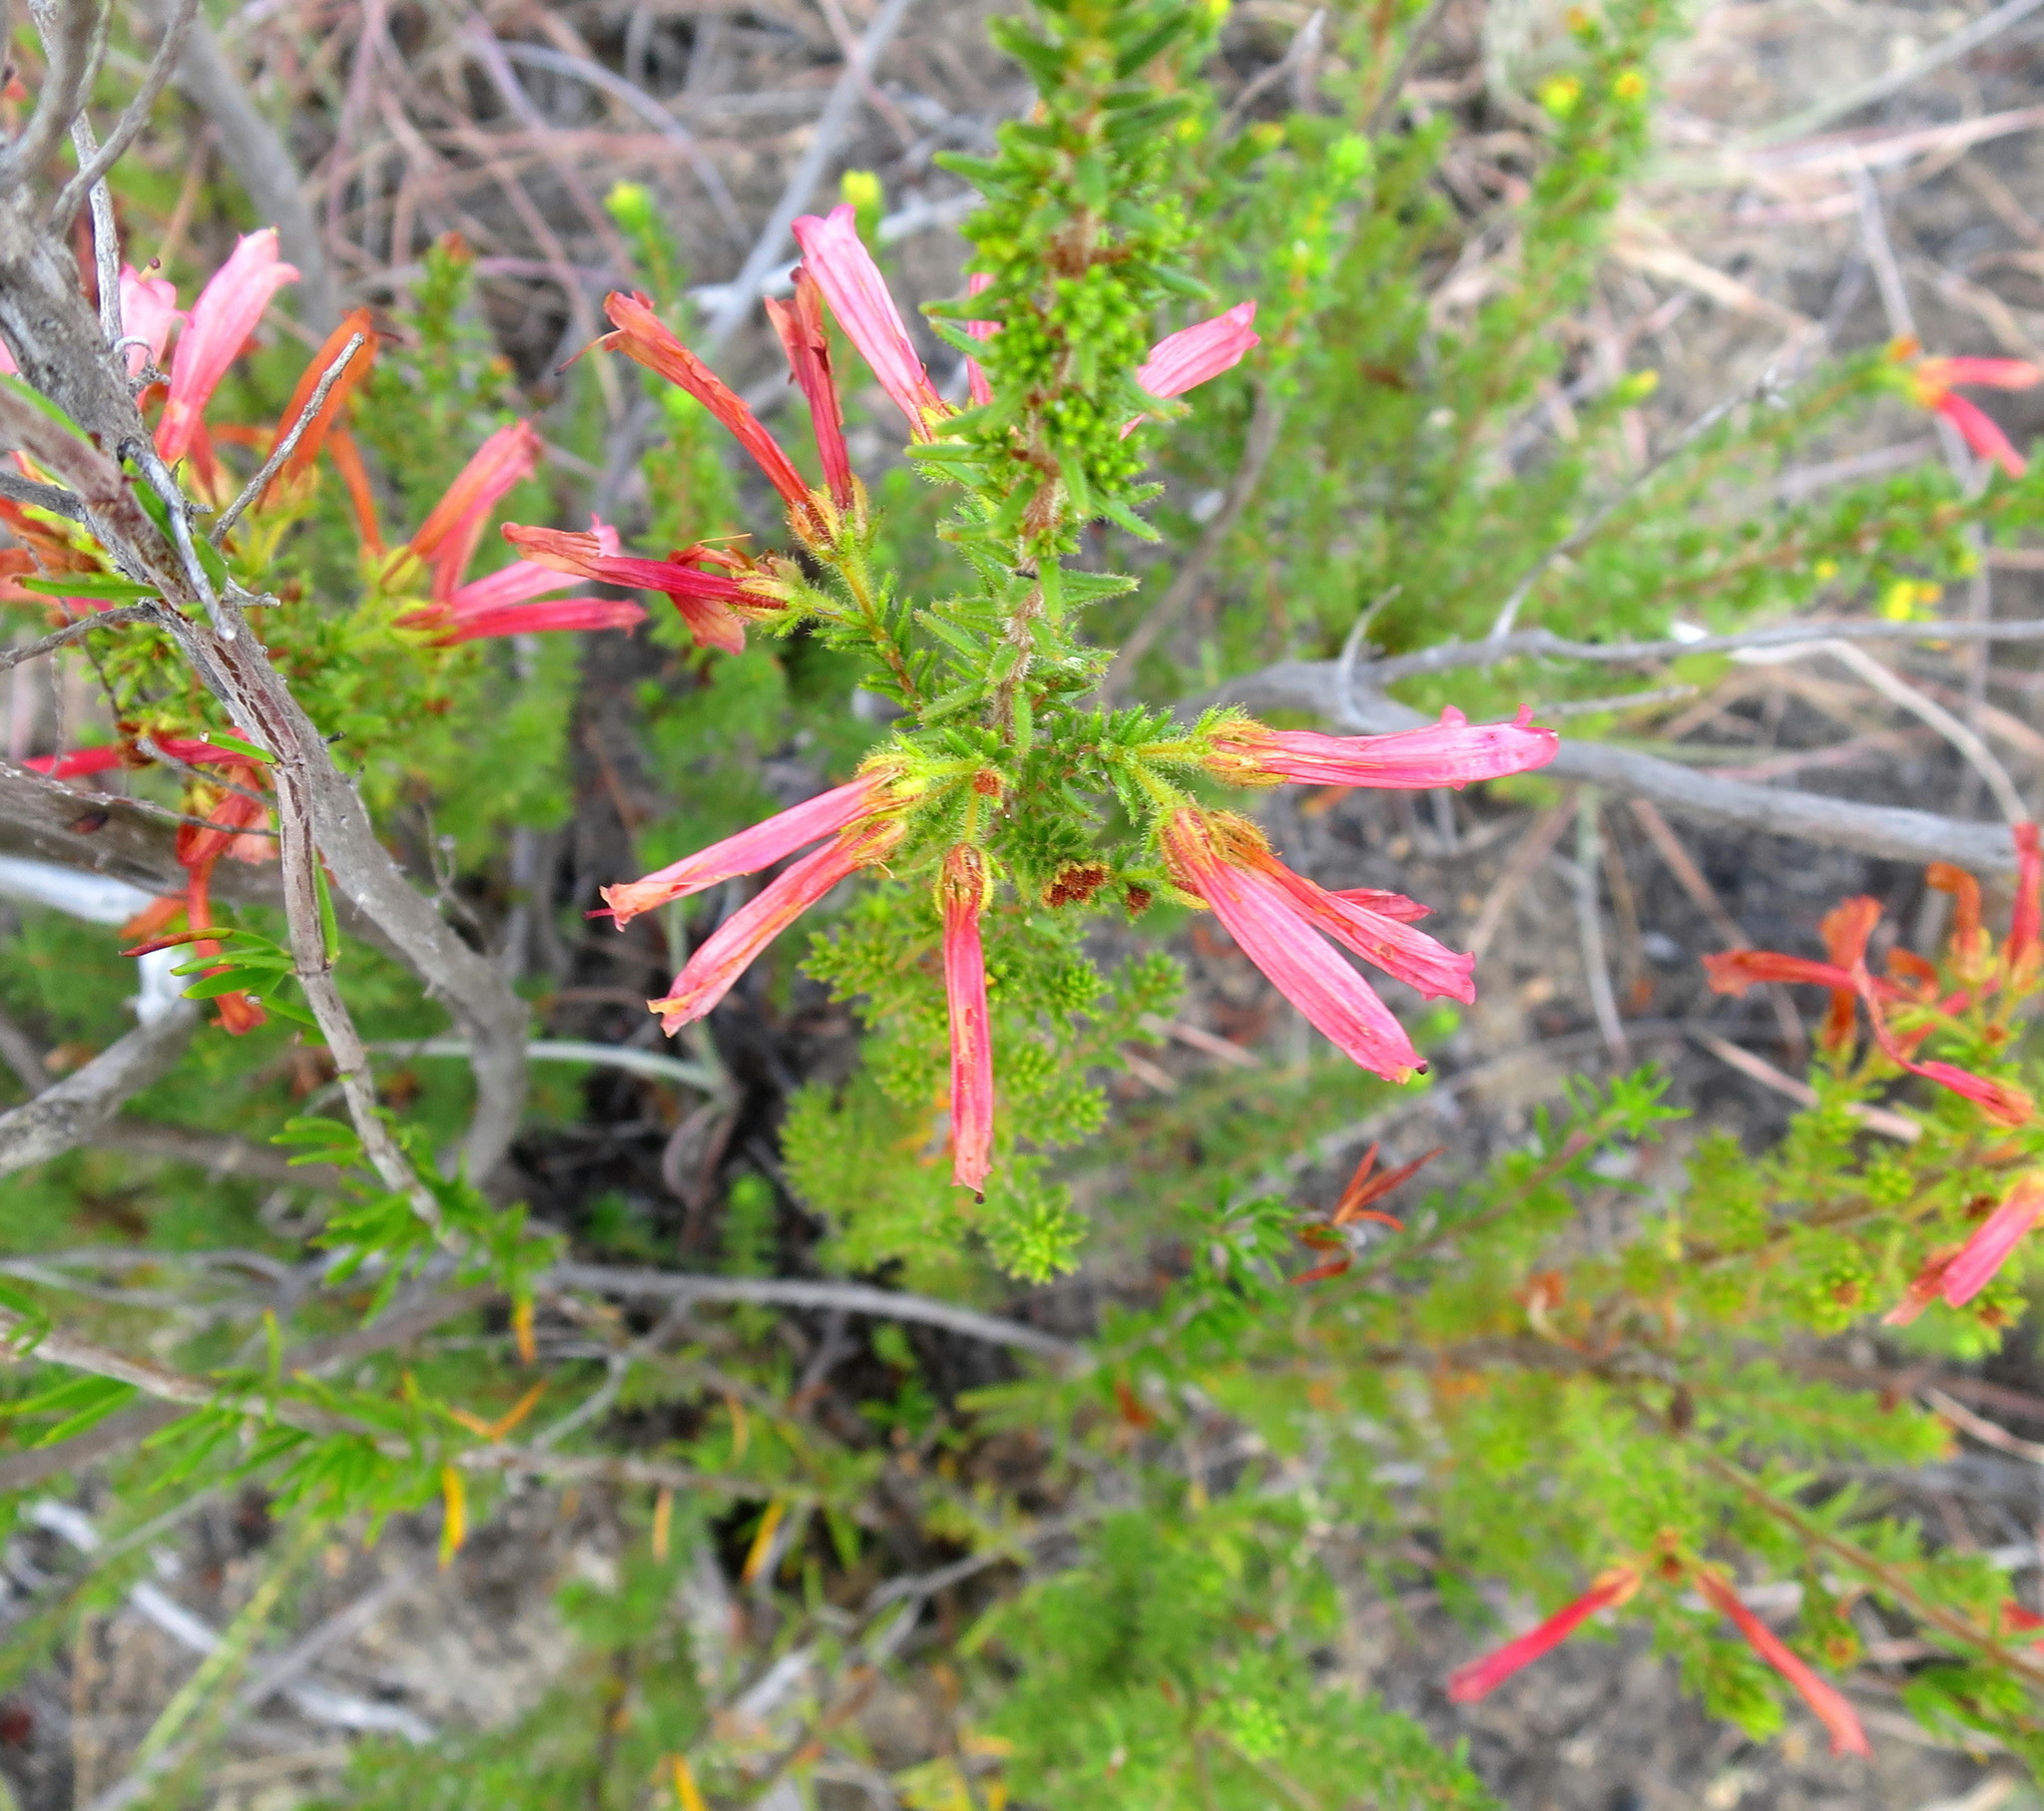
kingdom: Plantae
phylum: Tracheophyta
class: Magnoliopsida
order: Ericales
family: Ericaceae
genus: Erica
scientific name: Erica glandulosa
